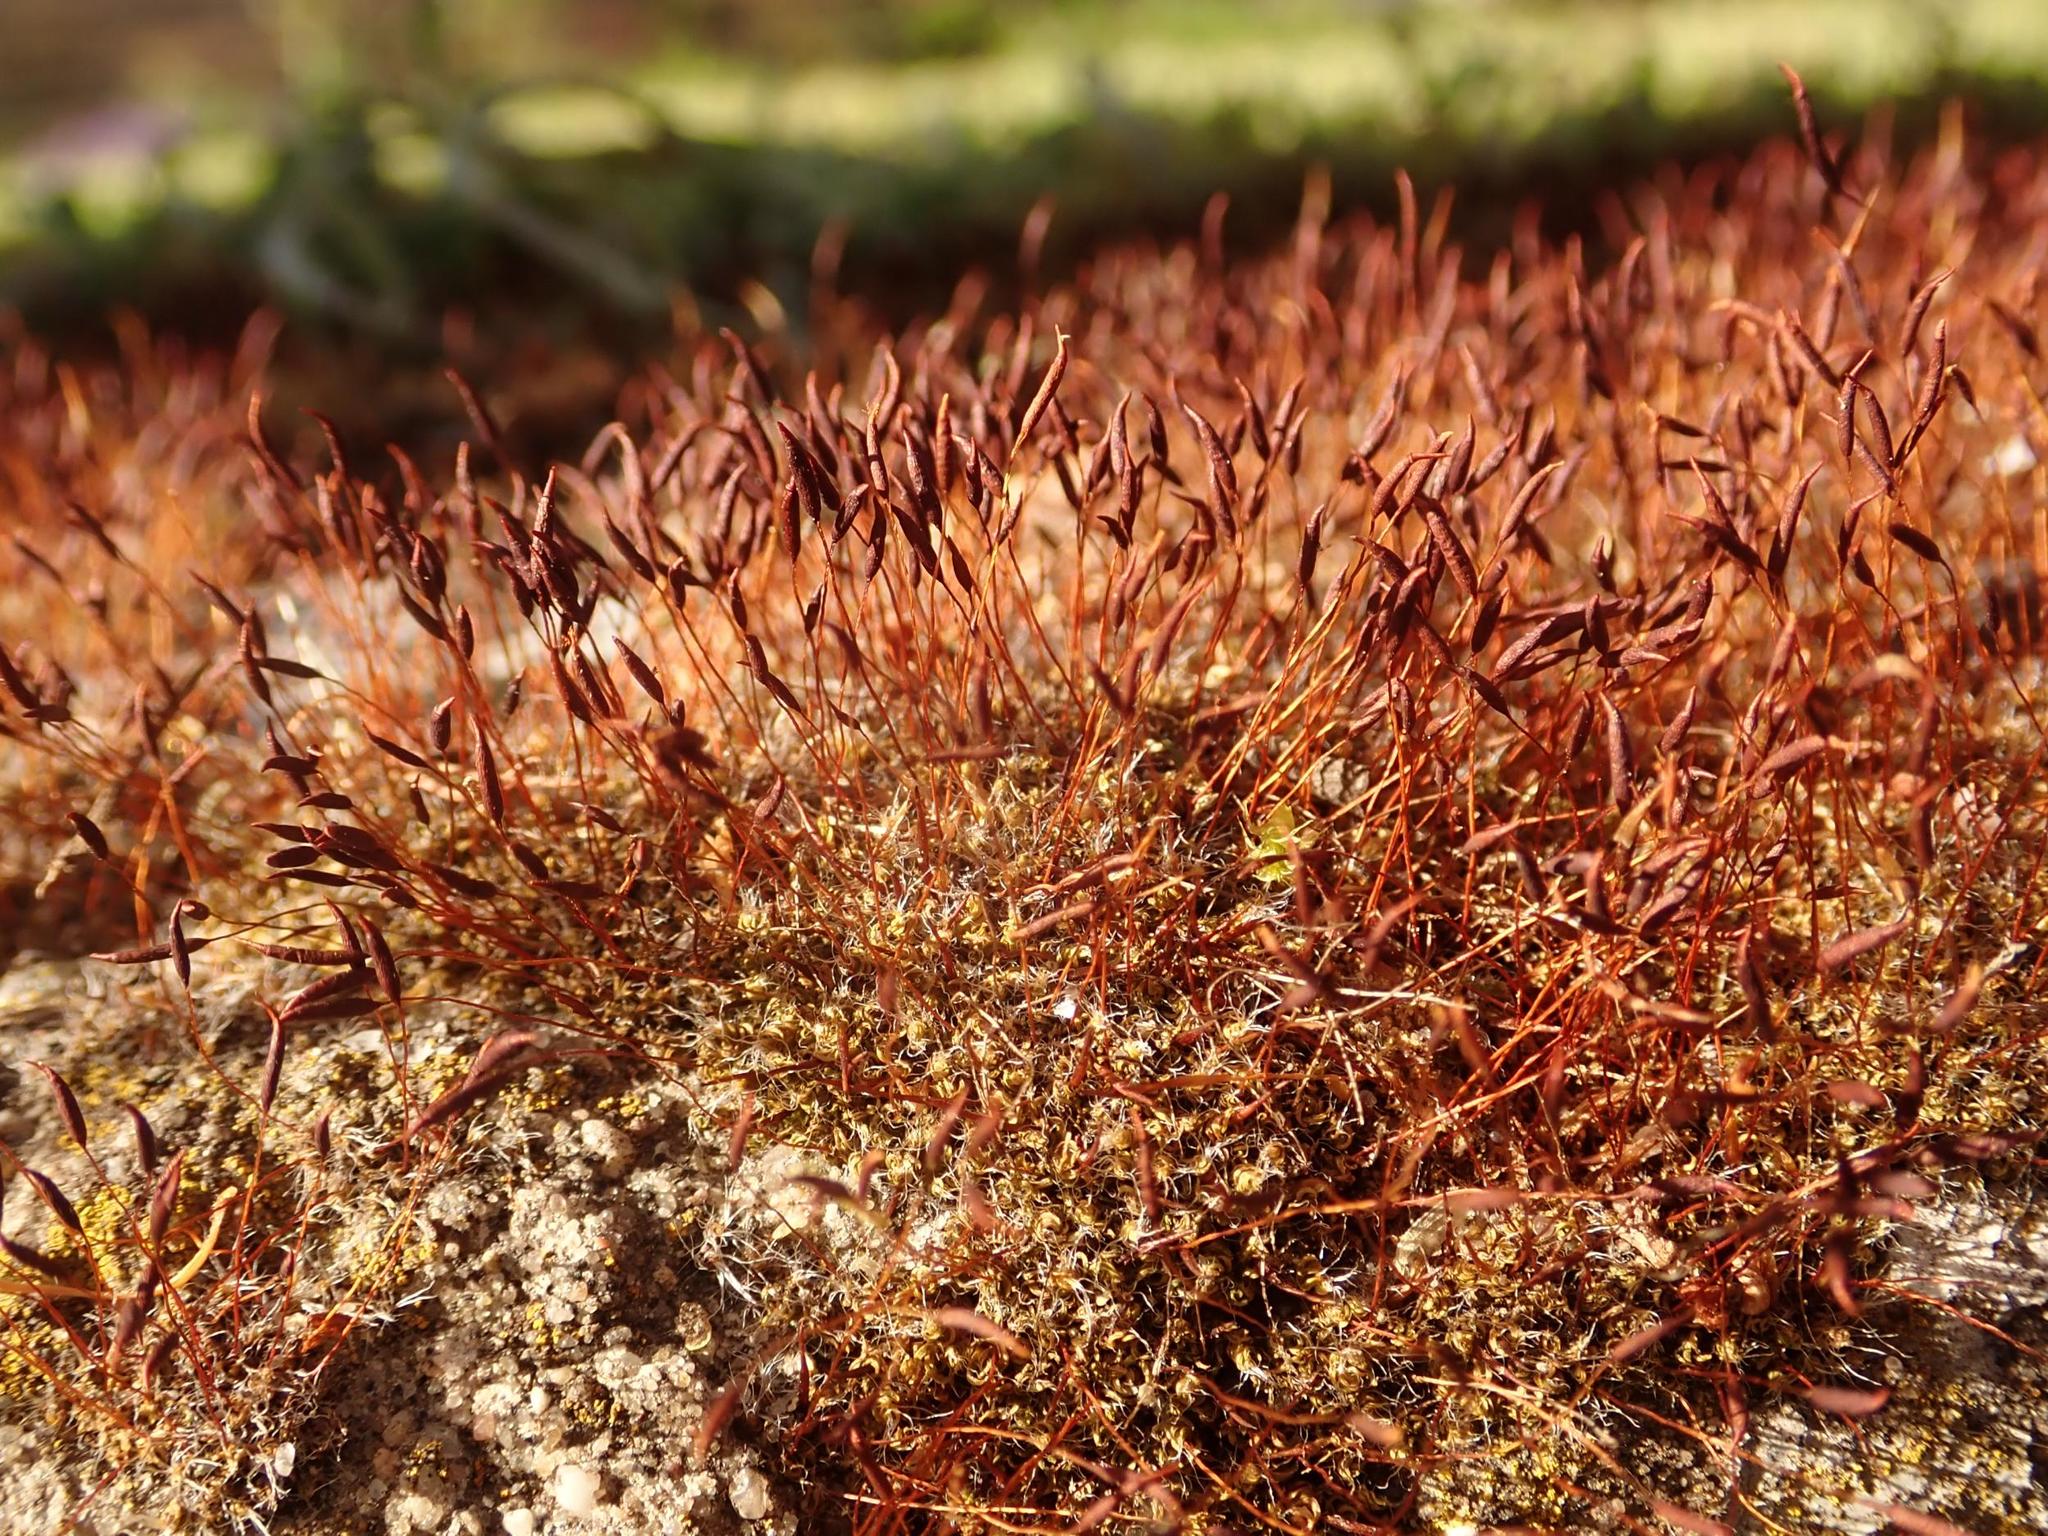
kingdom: Plantae
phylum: Bryophyta
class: Bryopsida
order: Pottiales
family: Pottiaceae
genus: Tortula
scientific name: Tortula muralis
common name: Wall screw-moss
